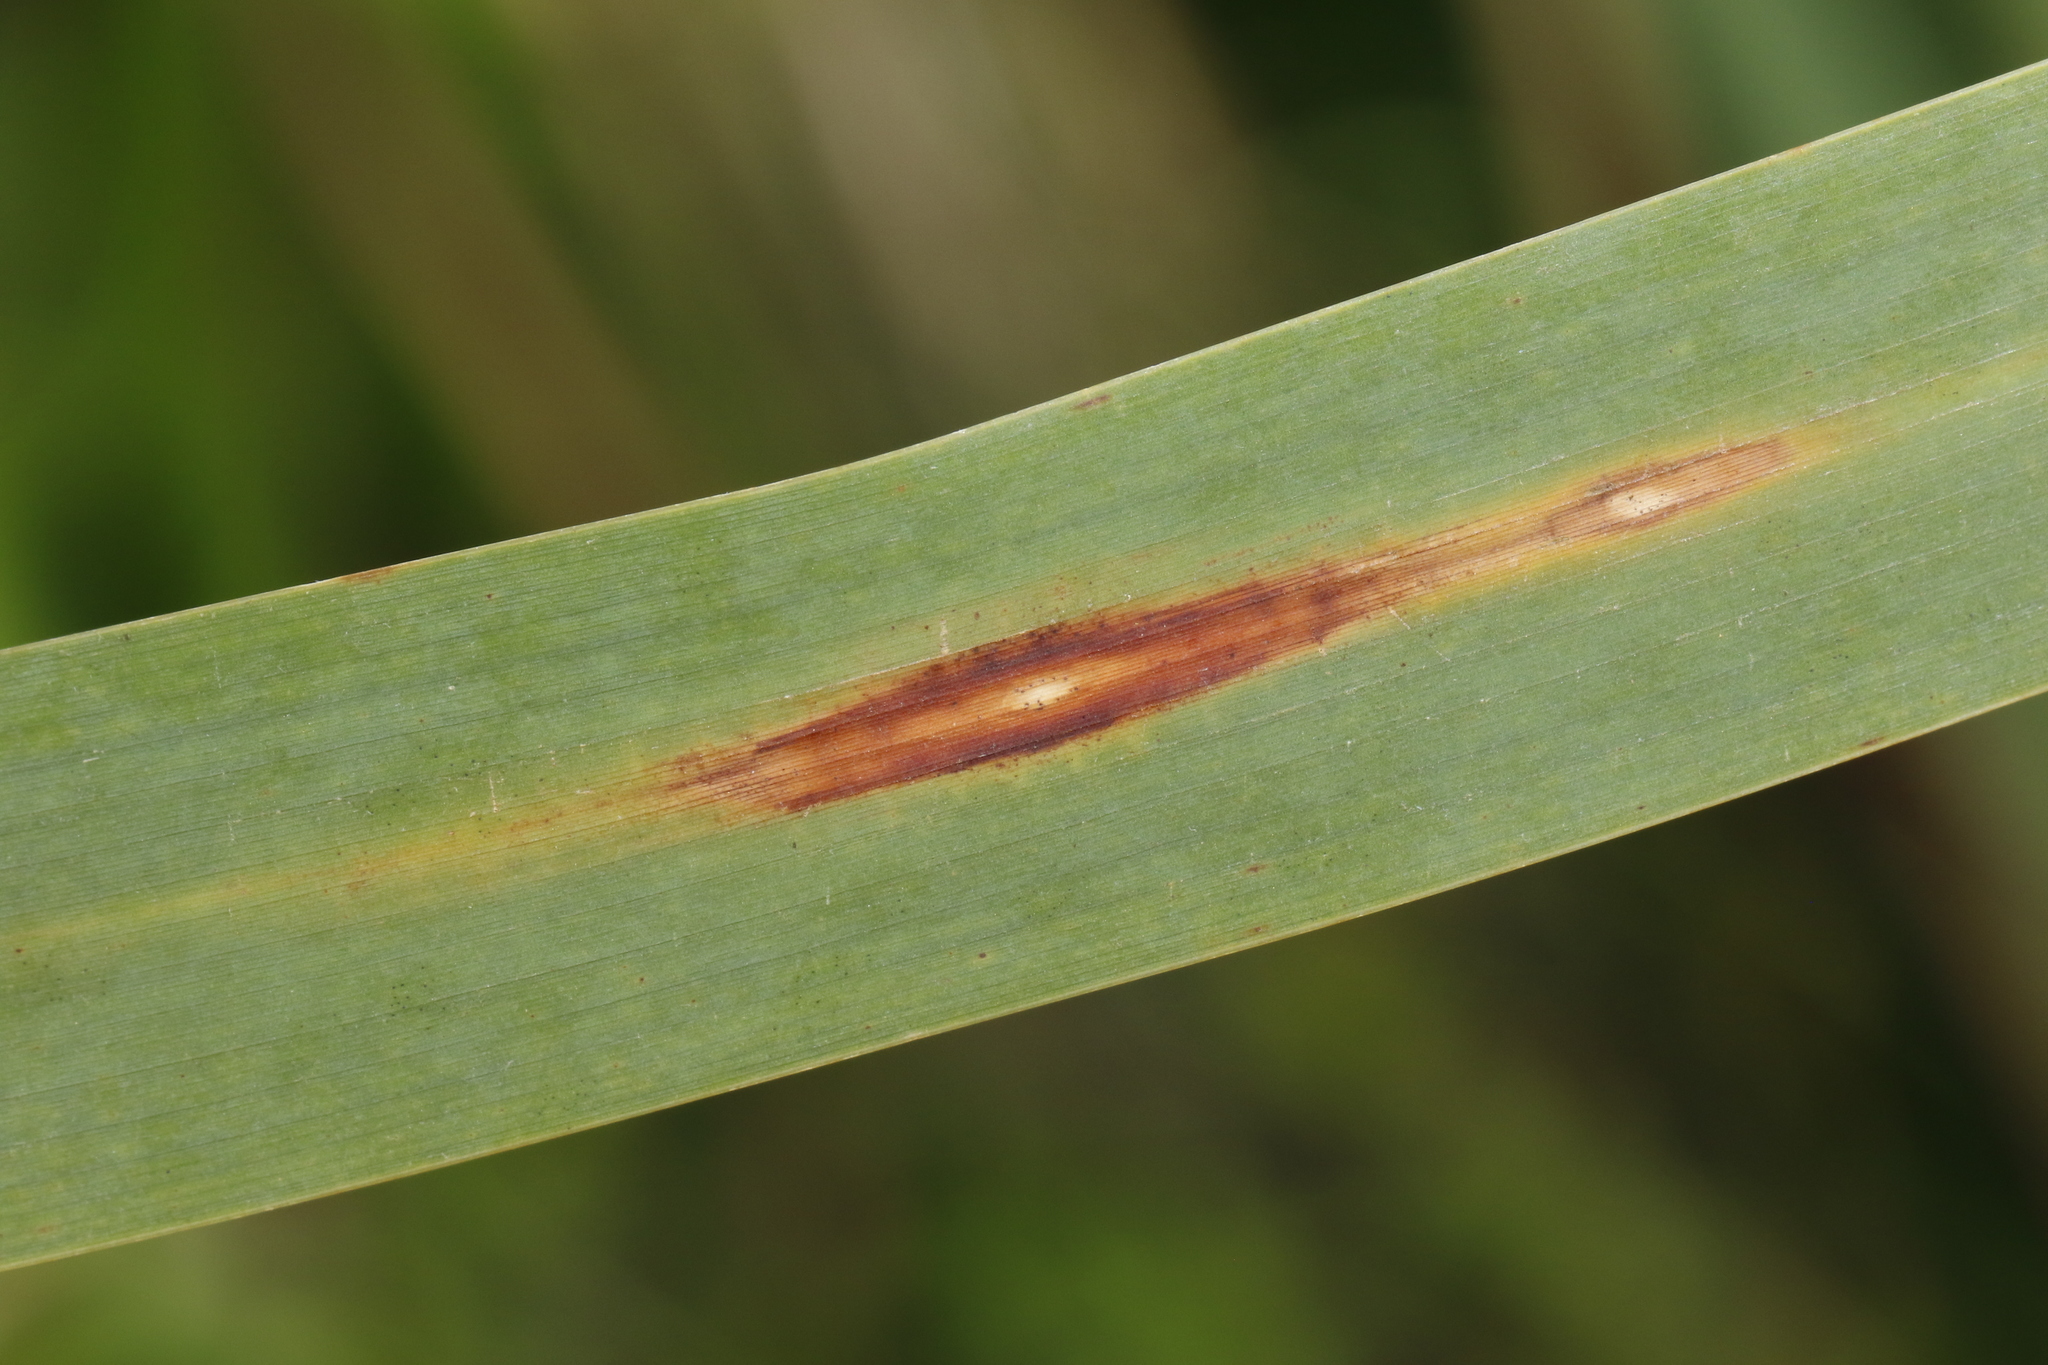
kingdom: Fungi
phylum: Ascomycota
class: Sordariomycetes
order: Glomerellales
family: Glomerellaceae
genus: Colletotrichum
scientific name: Colletotrichum typhae
